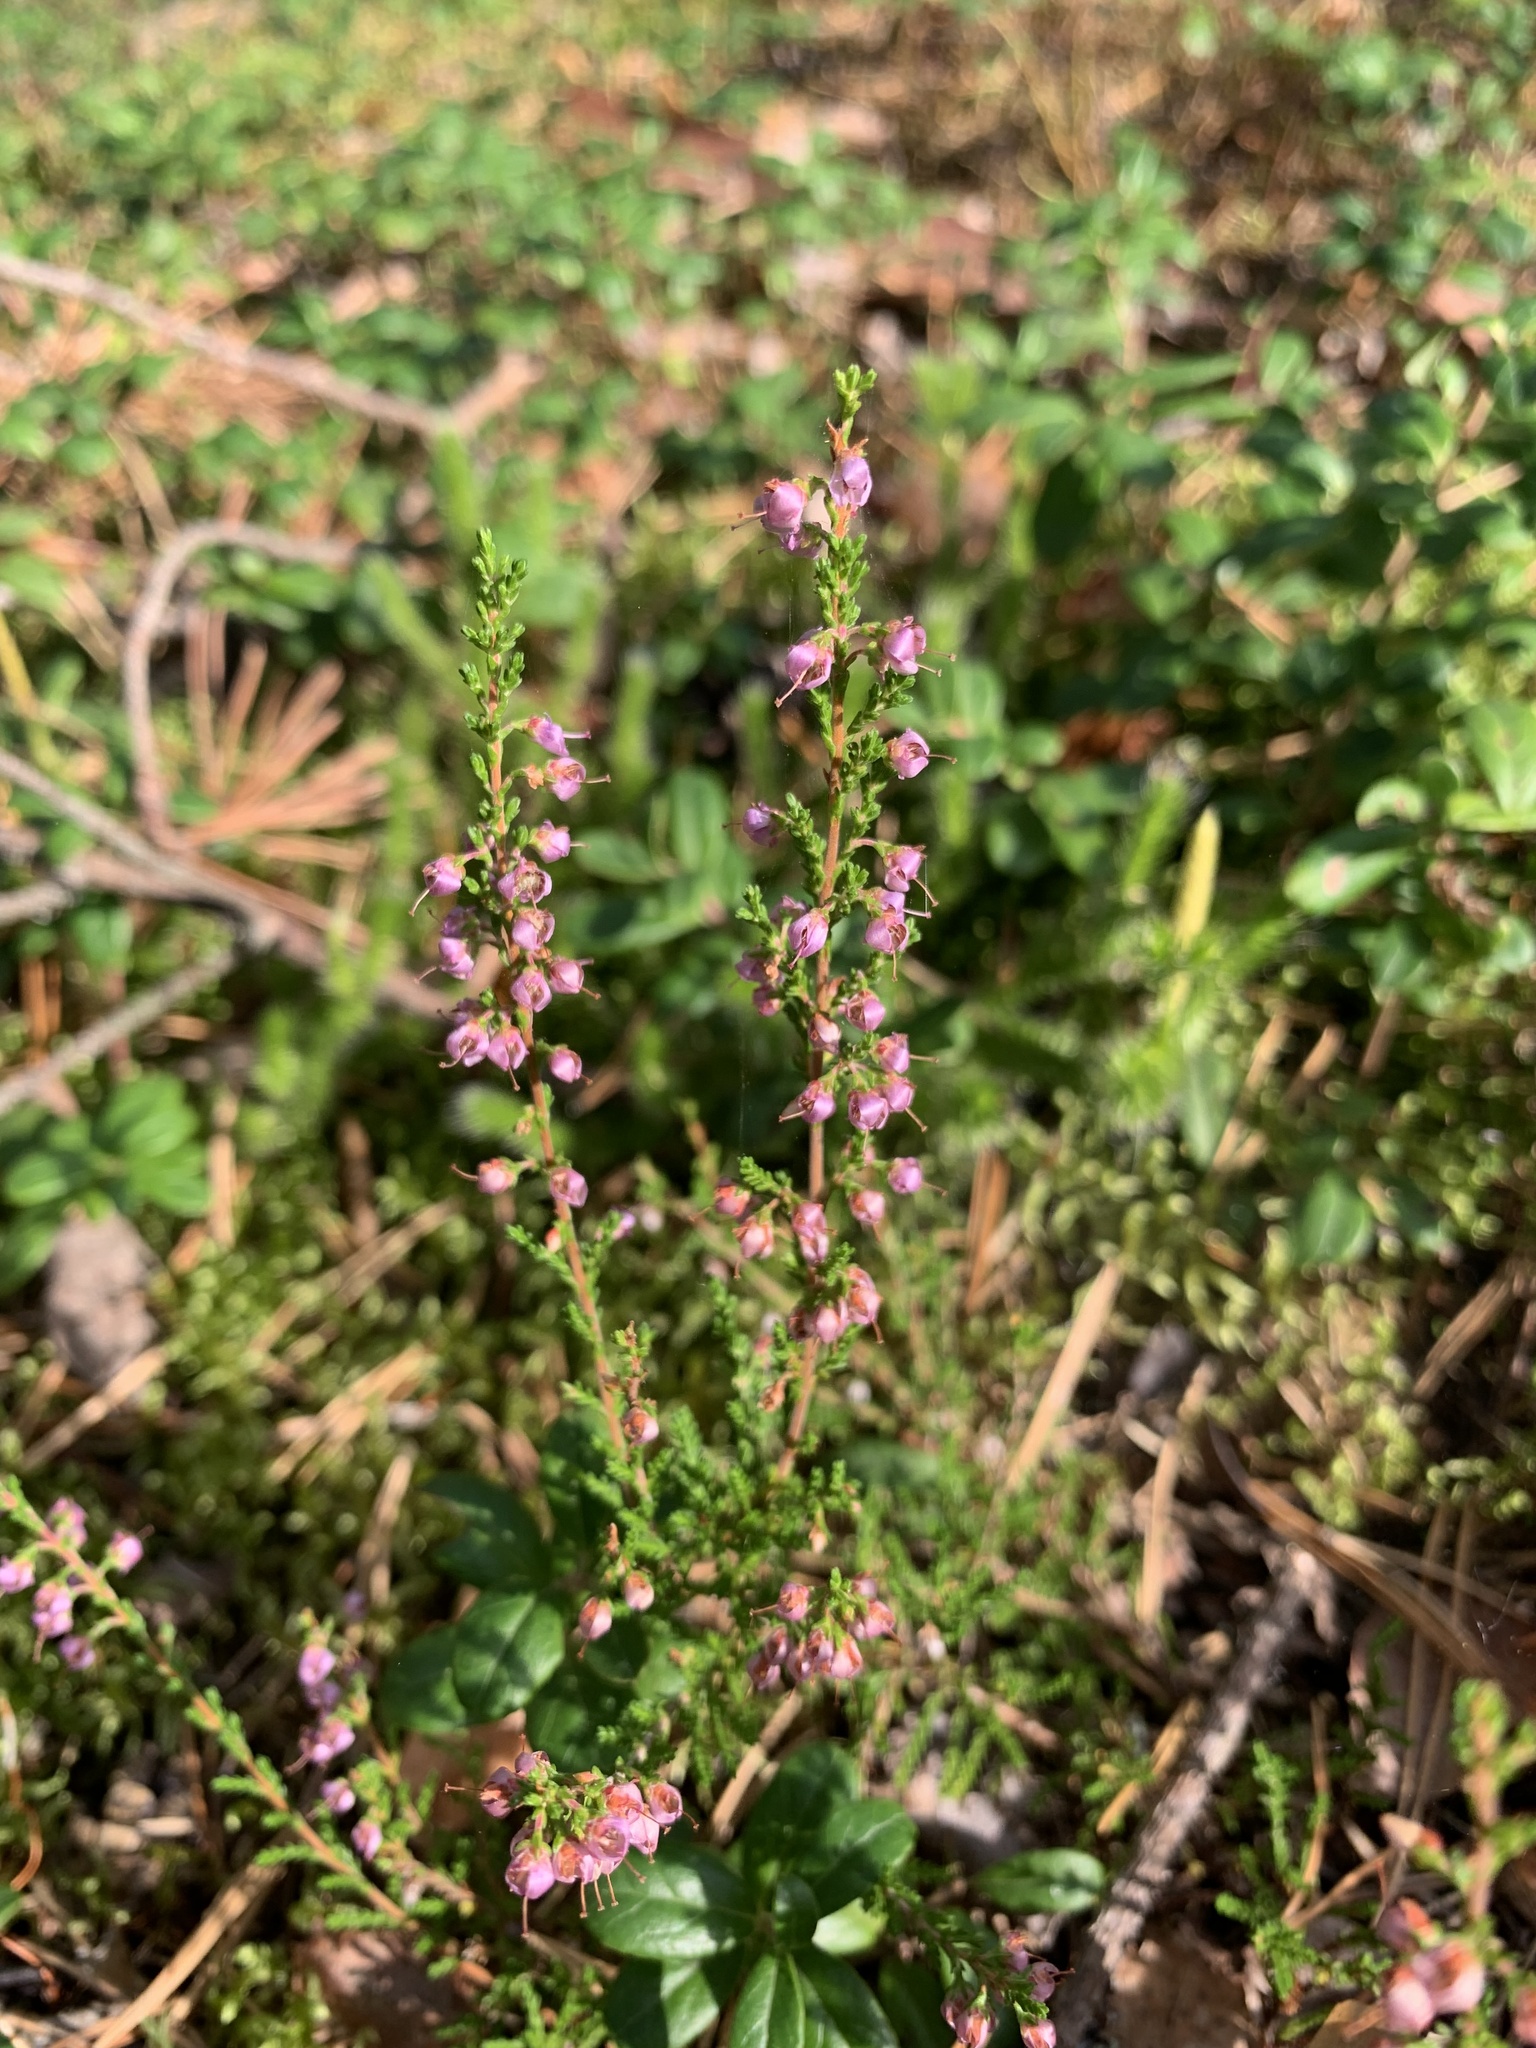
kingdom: Plantae
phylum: Tracheophyta
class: Magnoliopsida
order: Ericales
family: Ericaceae
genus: Calluna
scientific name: Calluna vulgaris
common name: Heather
